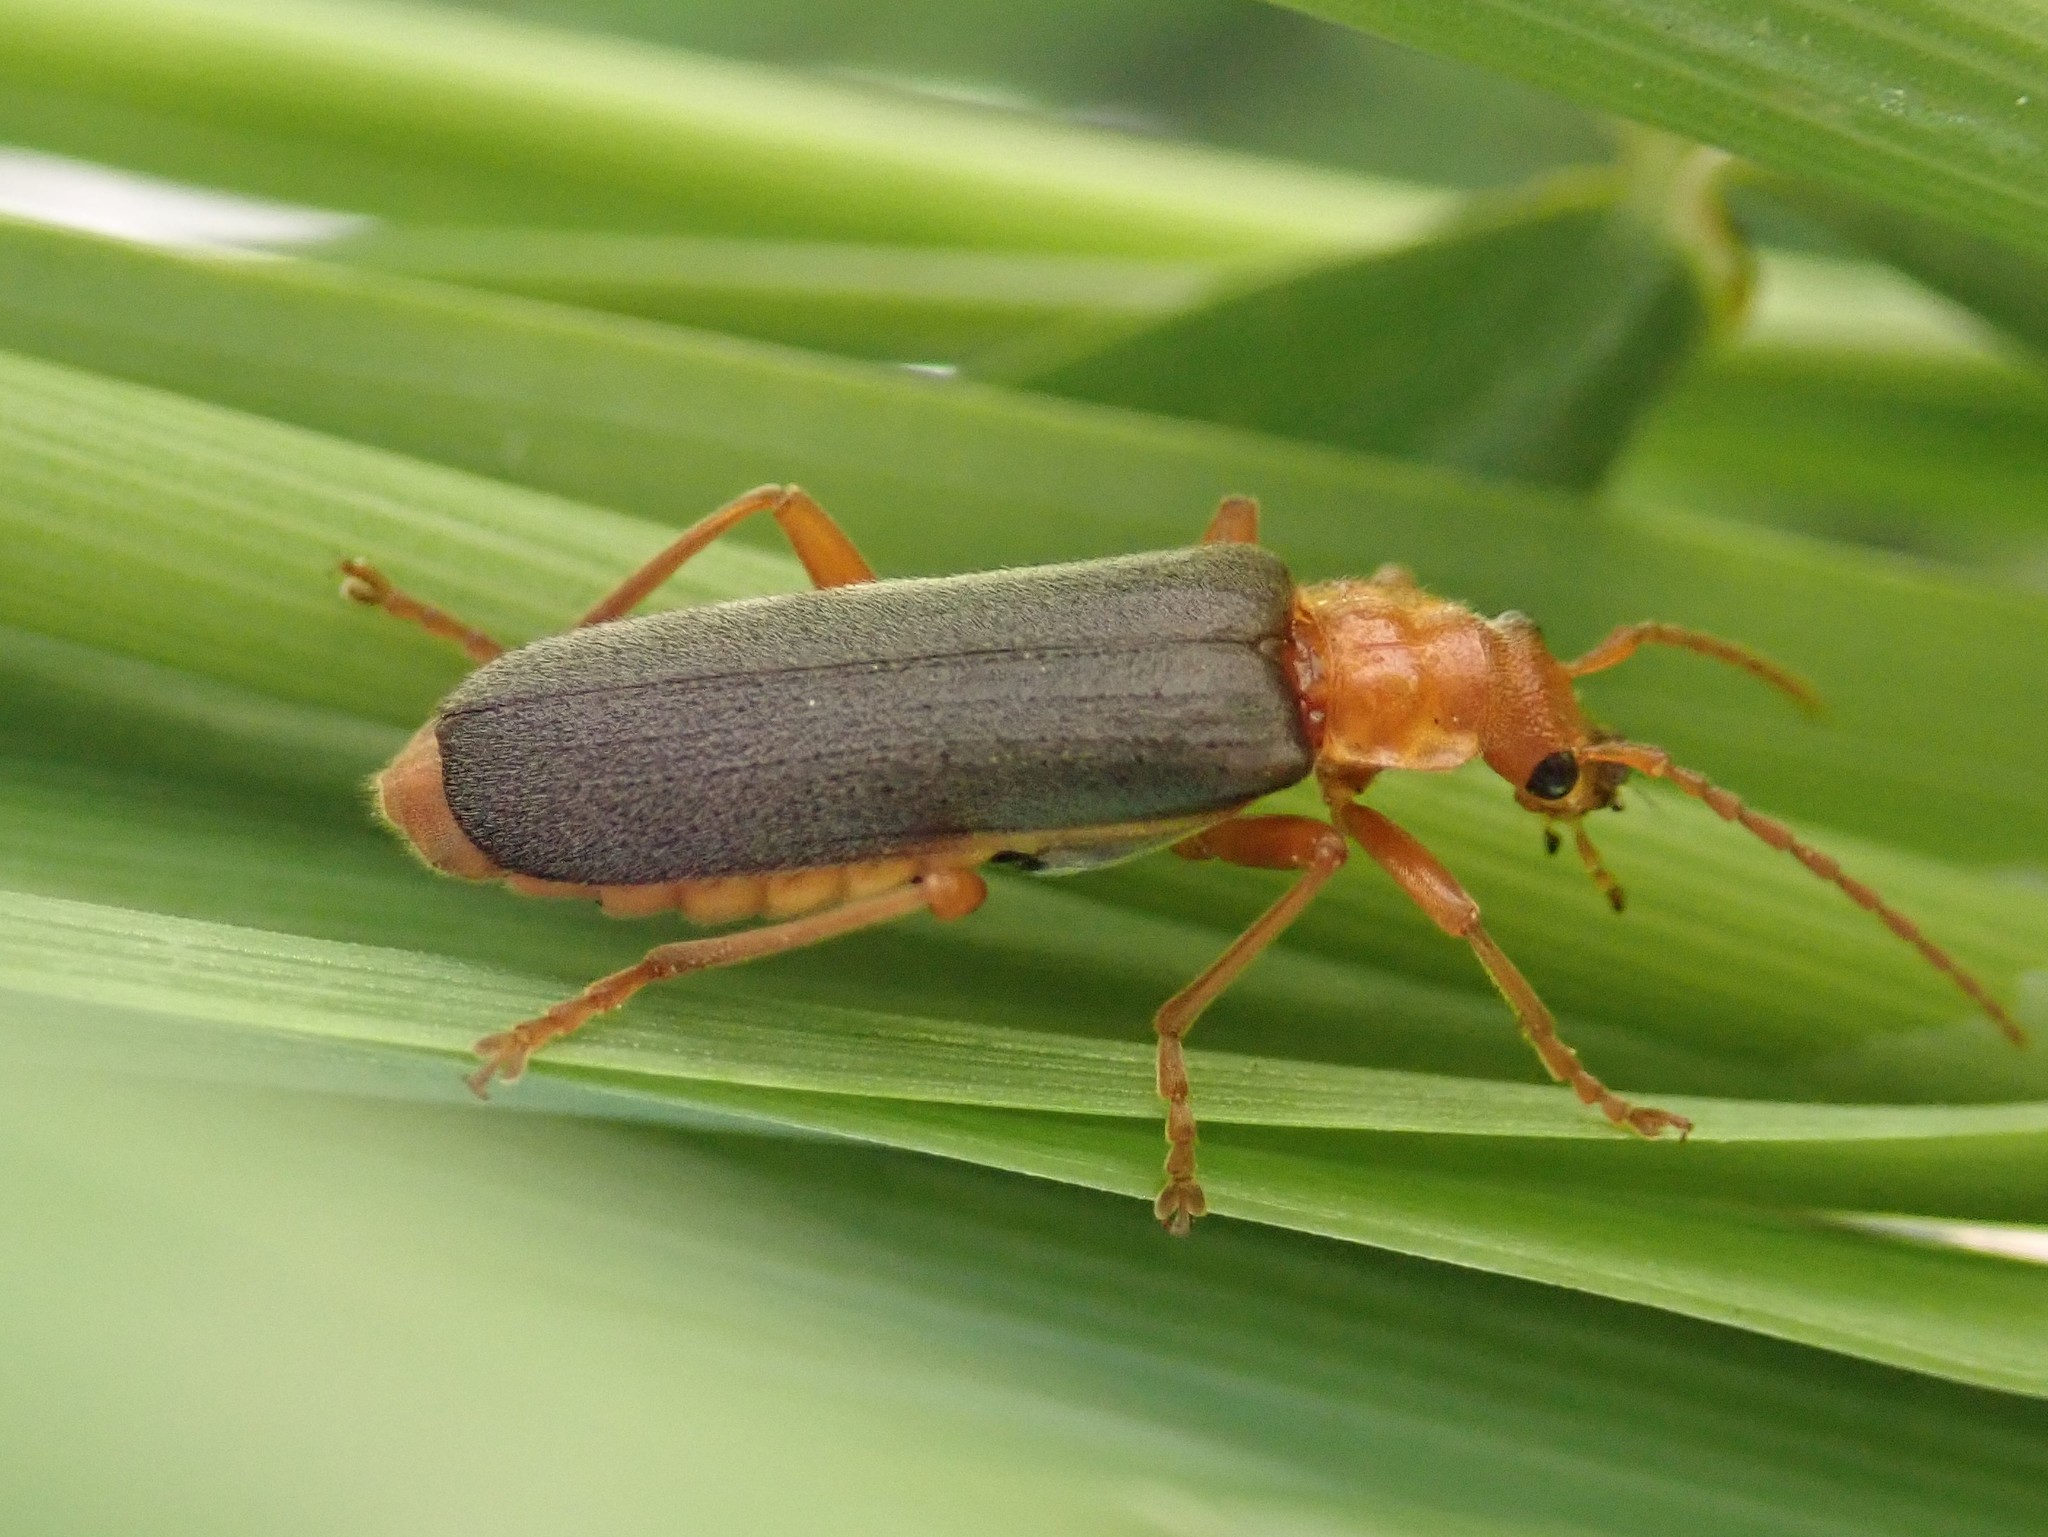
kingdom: Animalia
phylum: Arthropoda
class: Insecta
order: Coleoptera
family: Cantharidae
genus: Podabrus
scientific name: Podabrus pruinosus
